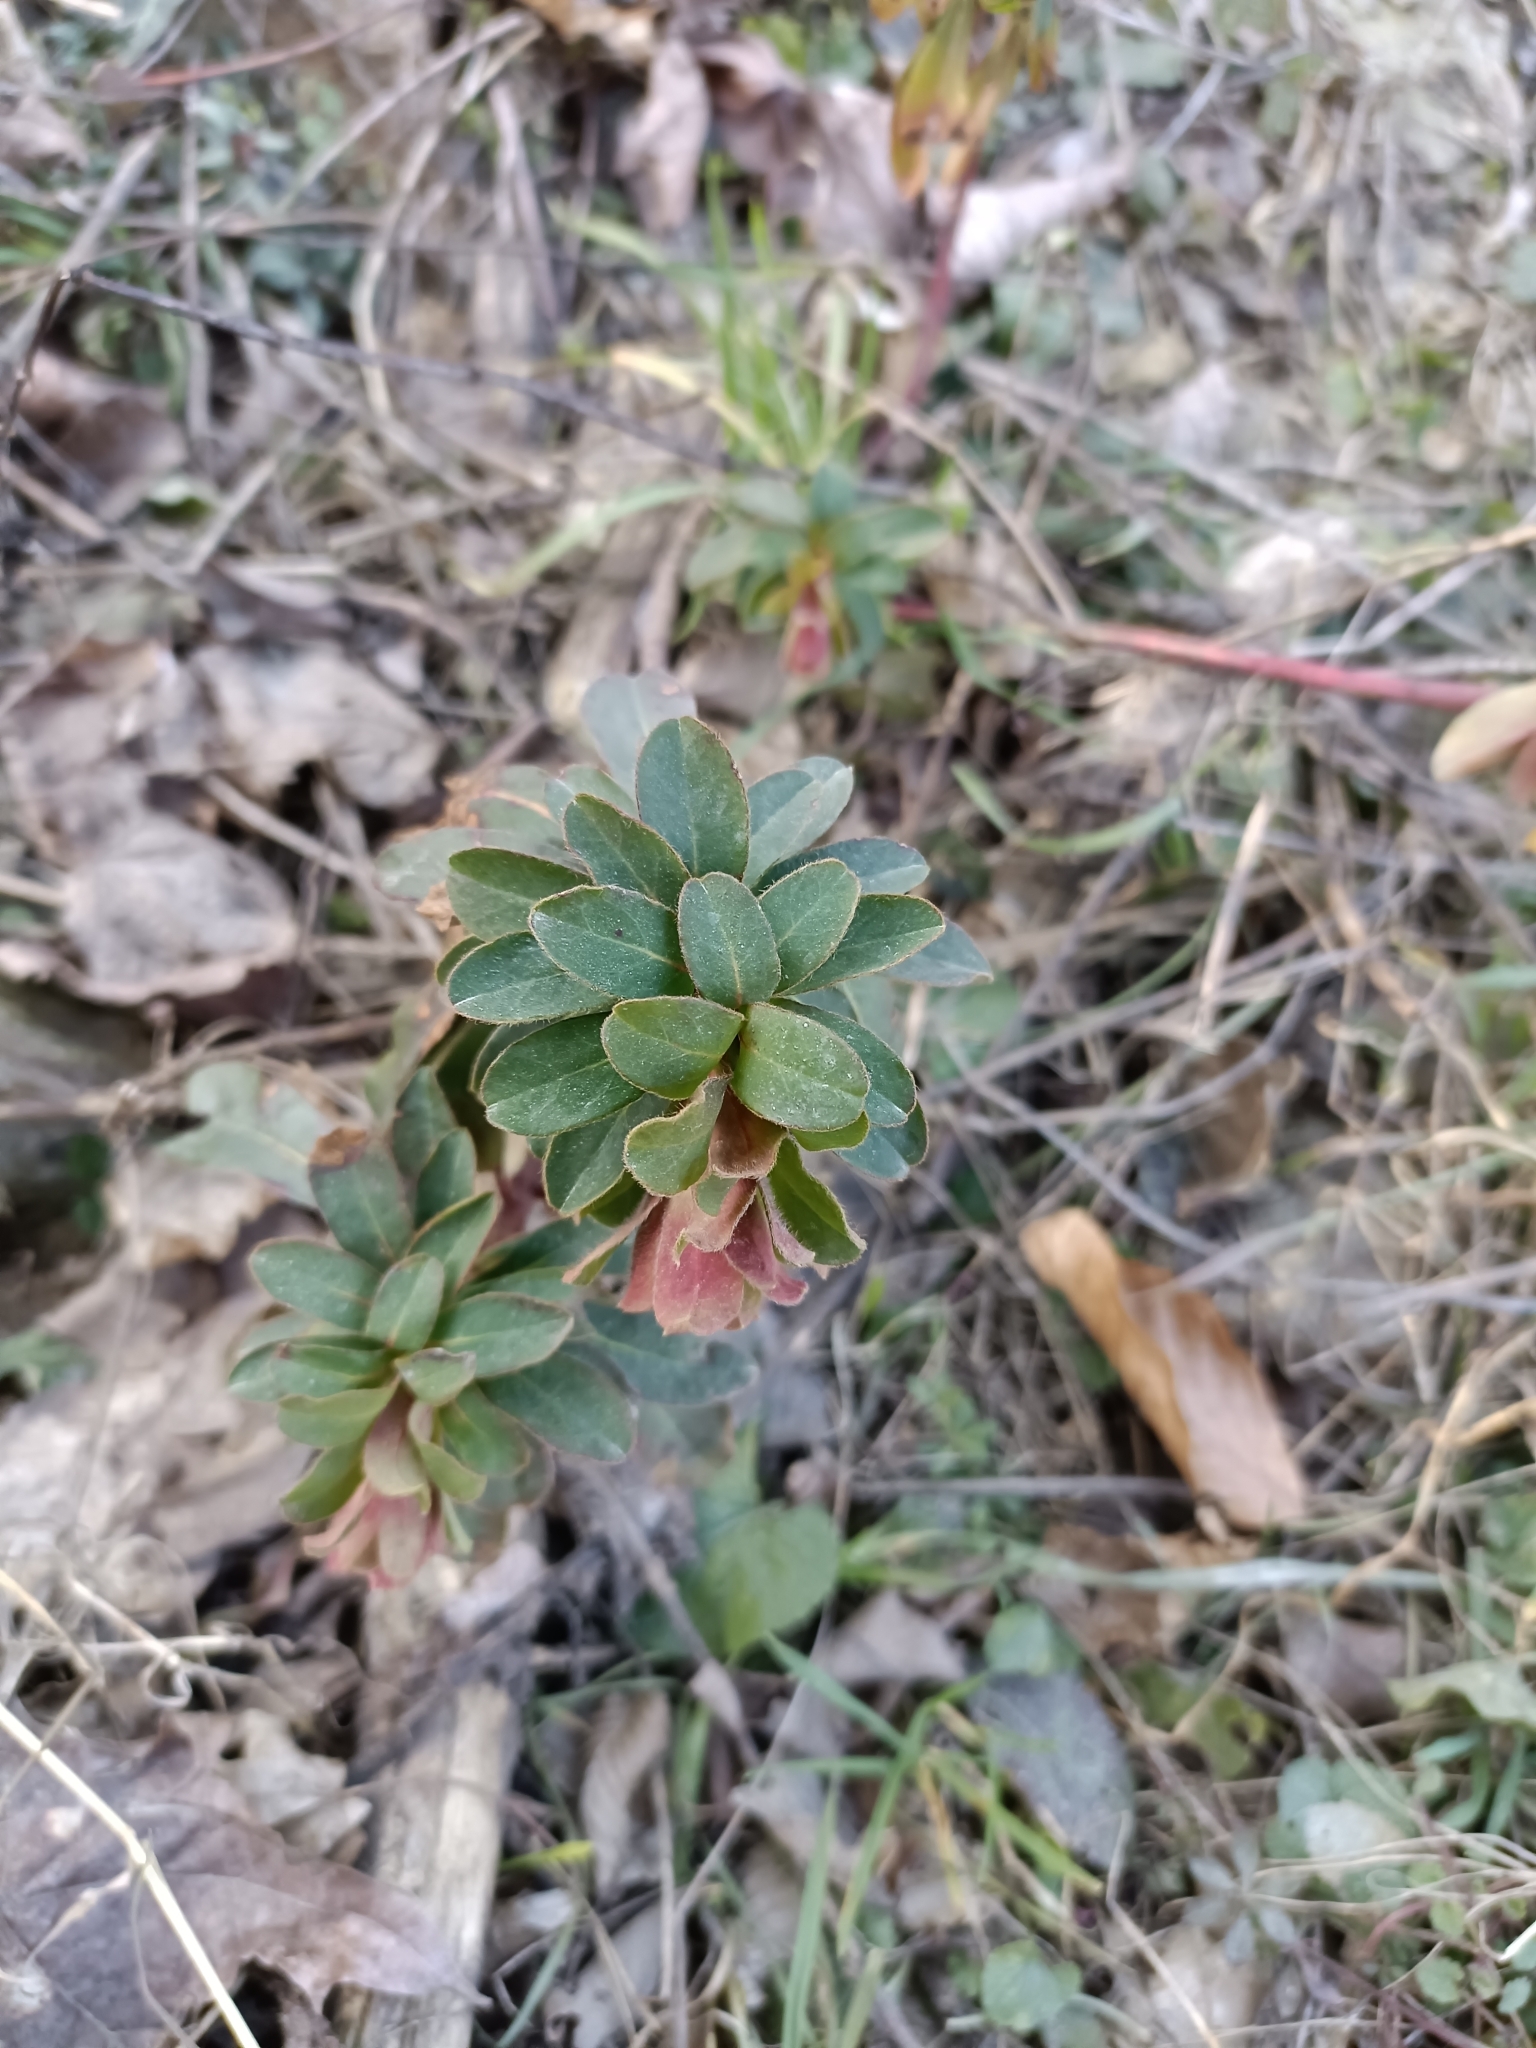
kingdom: Plantae
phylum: Tracheophyta
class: Magnoliopsida
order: Malpighiales
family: Euphorbiaceae
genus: Euphorbia
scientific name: Euphorbia amygdaloides
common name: Wood spurge
